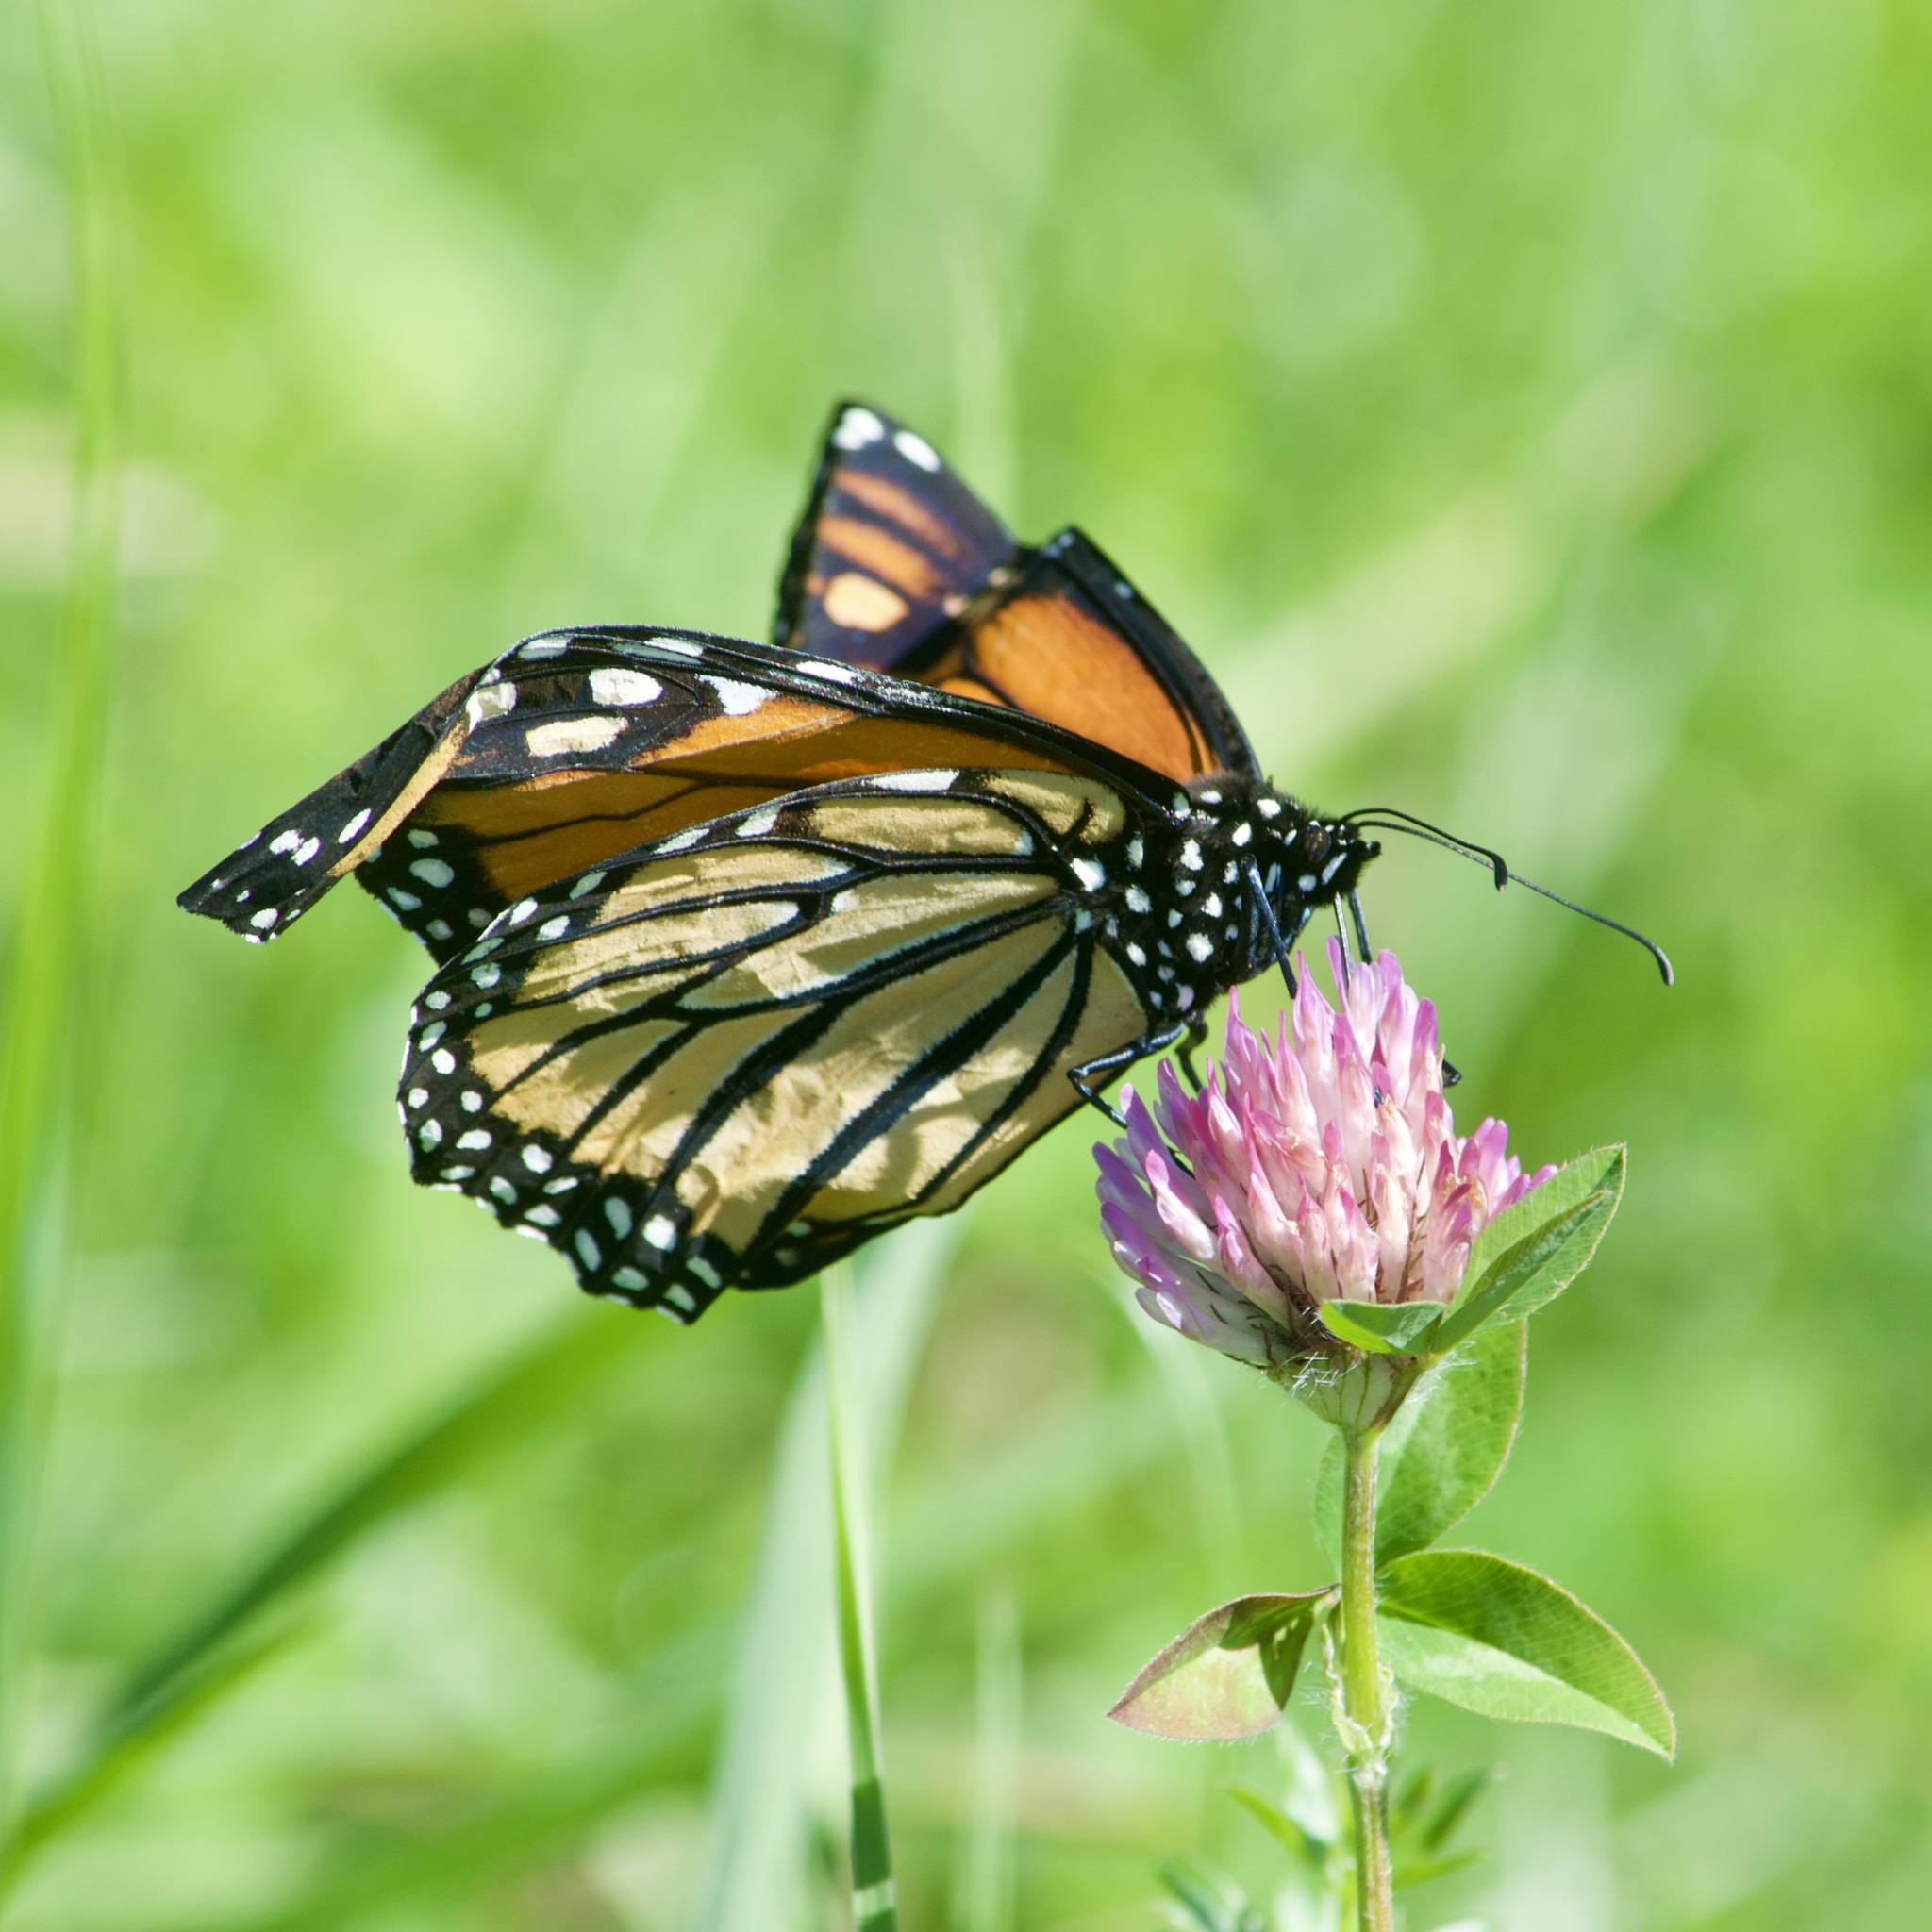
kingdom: Animalia
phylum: Arthropoda
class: Insecta
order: Lepidoptera
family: Nymphalidae
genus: Danaus
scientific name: Danaus plexippus
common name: Monarch
